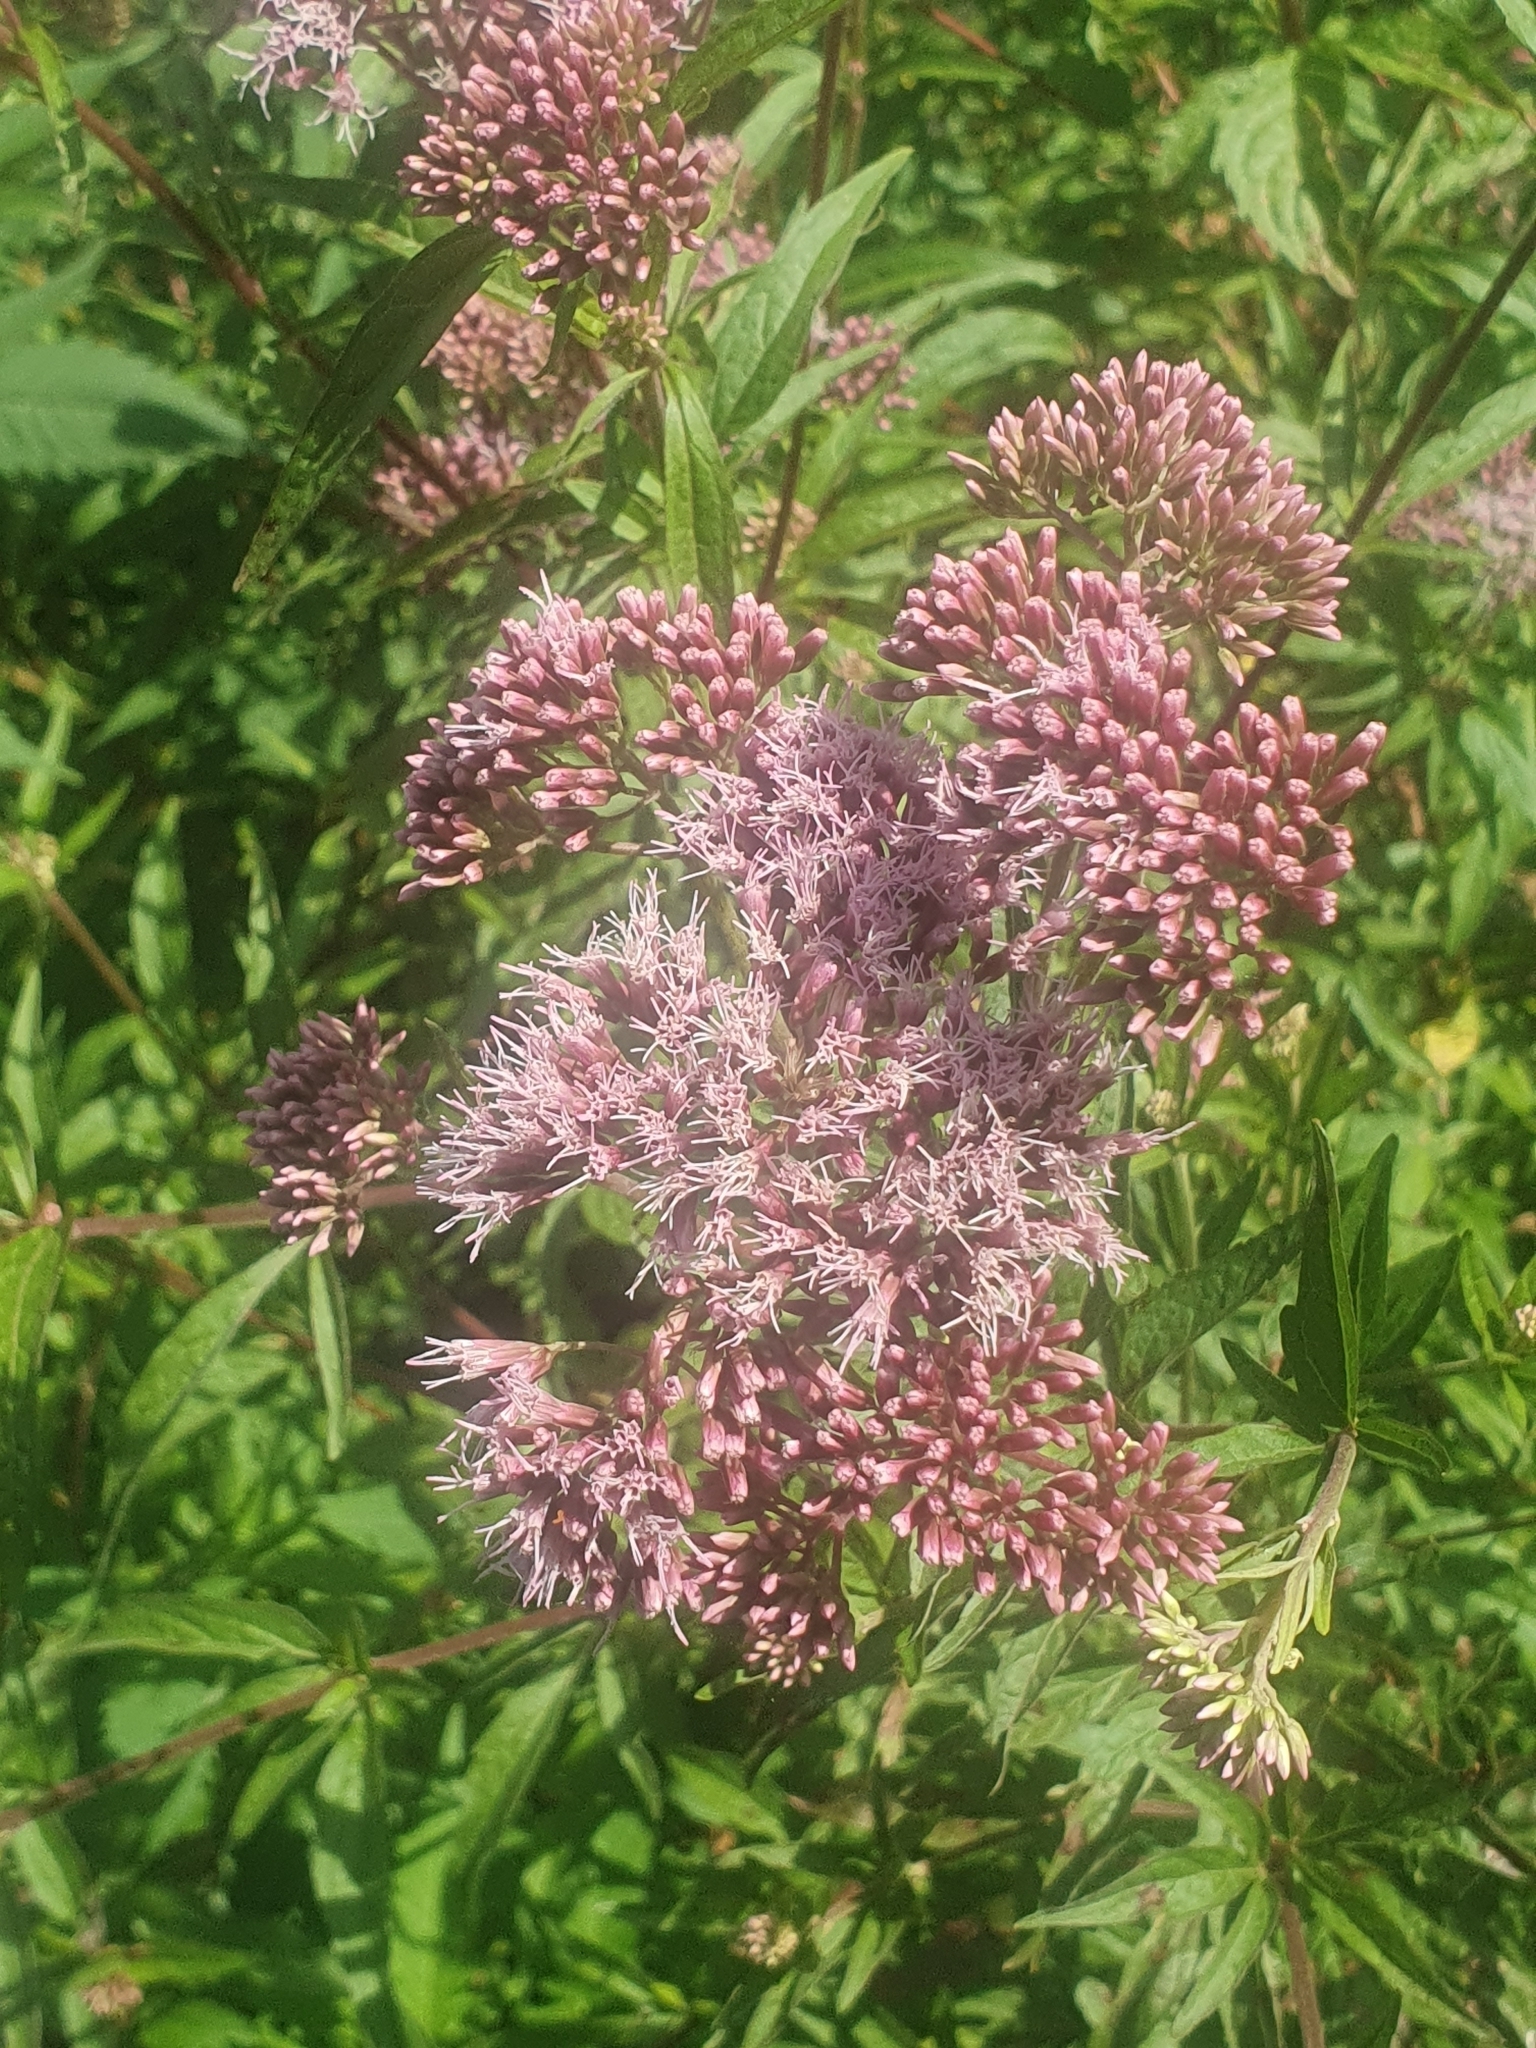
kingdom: Plantae
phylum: Tracheophyta
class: Magnoliopsida
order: Asterales
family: Asteraceae
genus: Eupatorium
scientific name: Eupatorium cannabinum
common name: Hemp-agrimony
